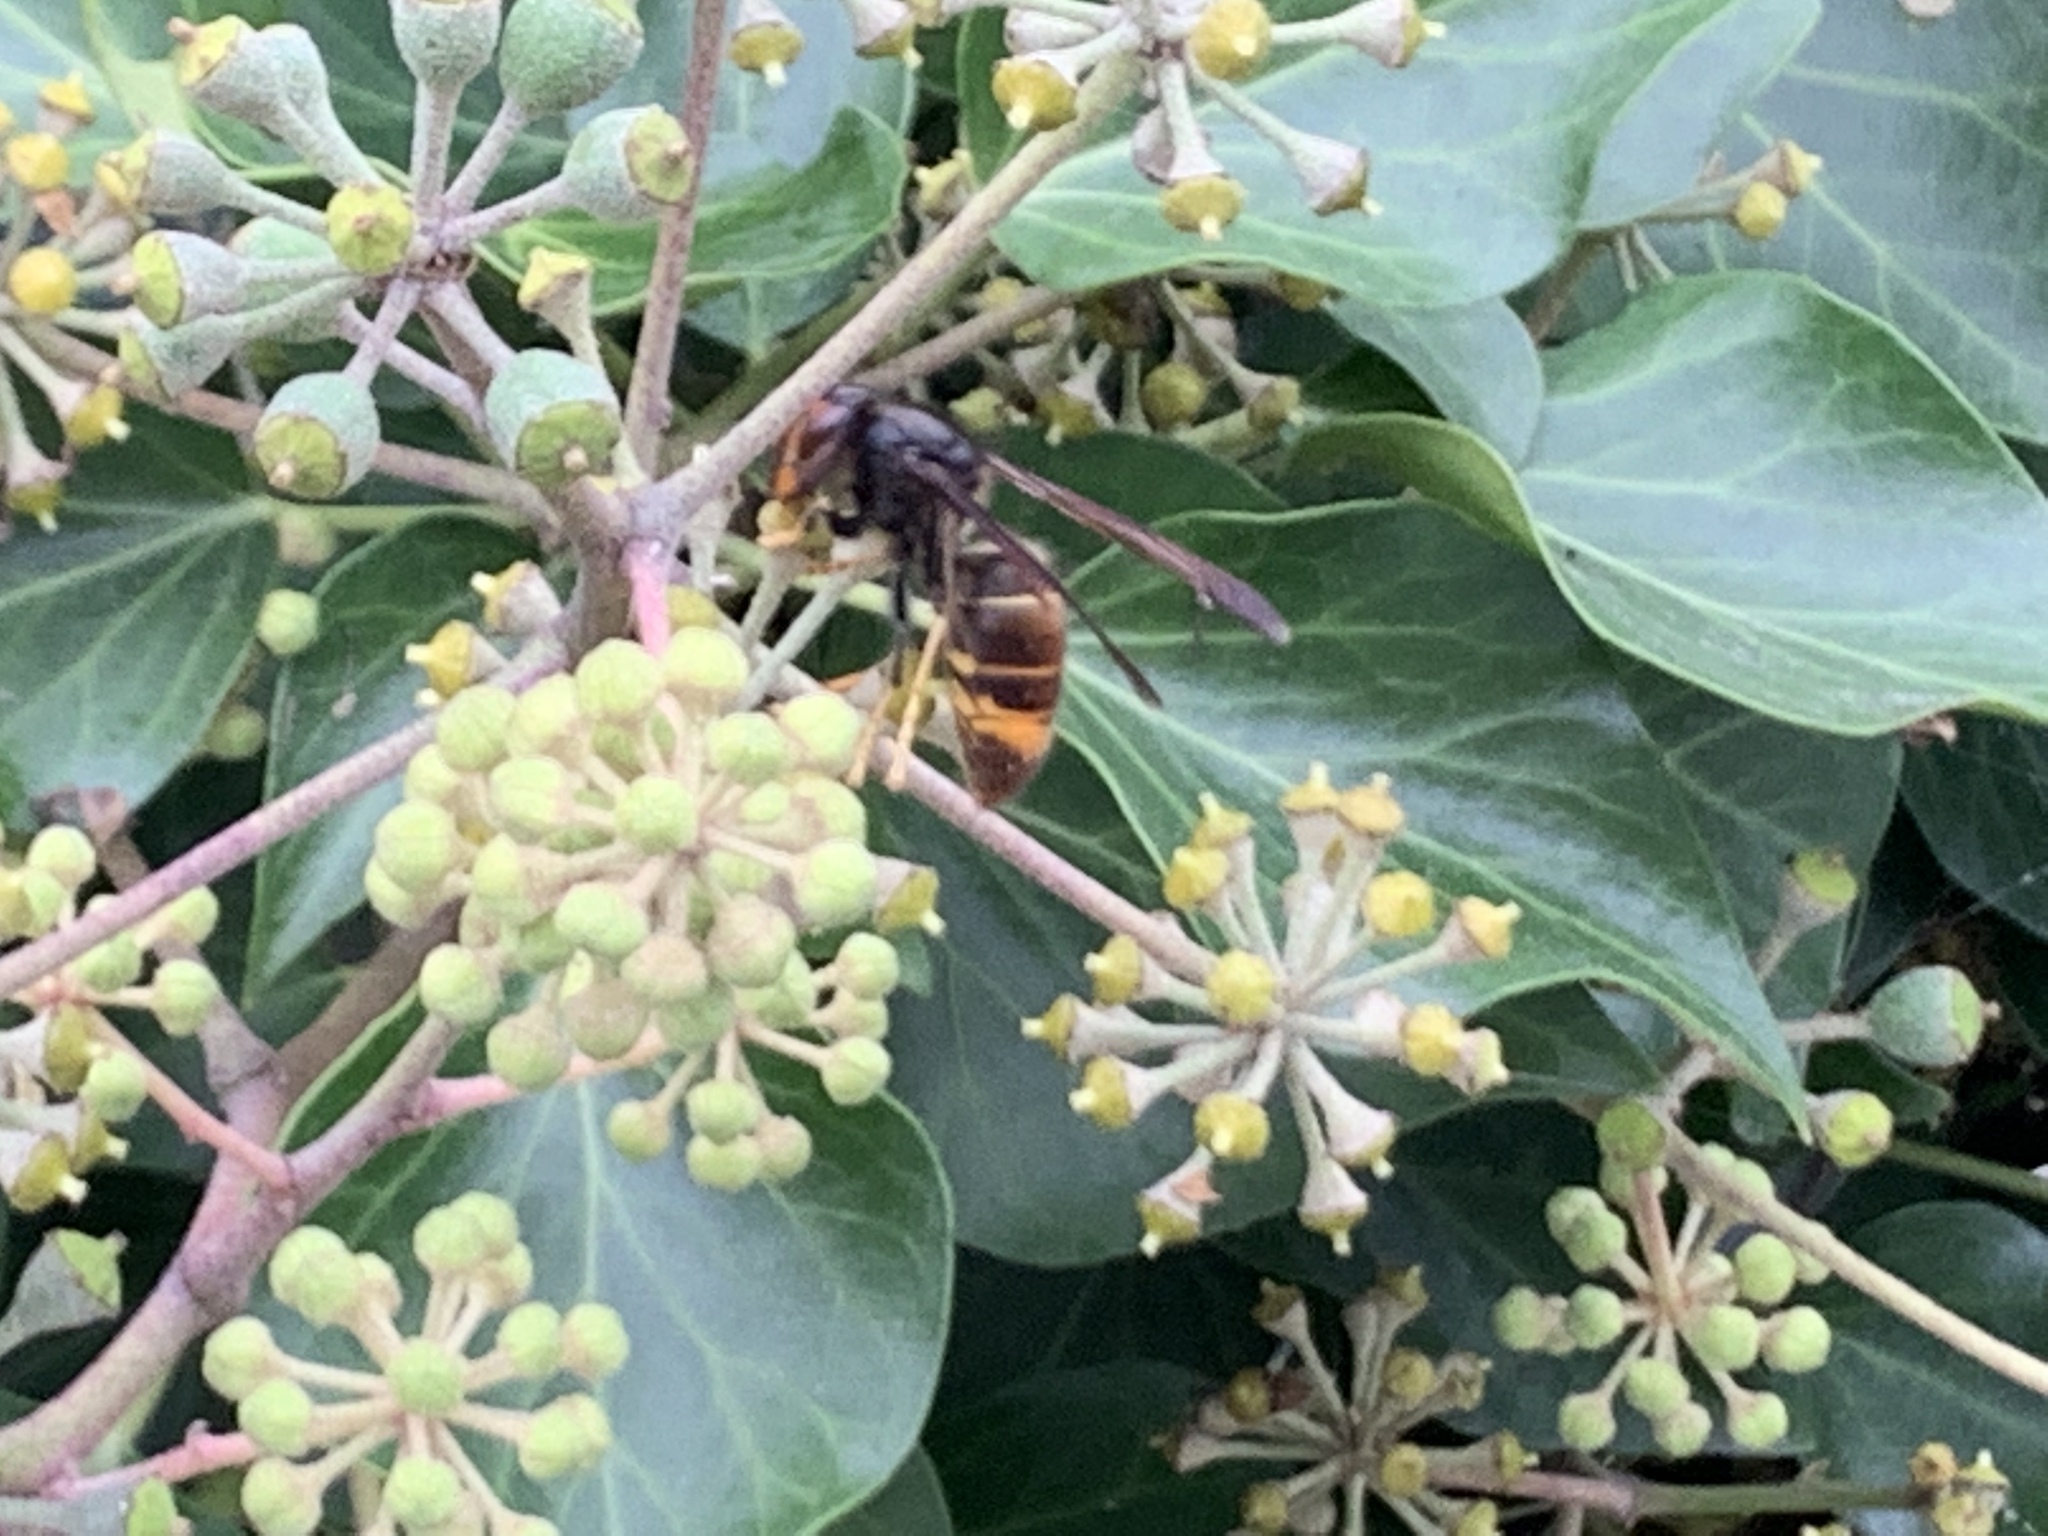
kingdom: Animalia
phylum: Arthropoda
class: Insecta
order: Hymenoptera
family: Vespidae
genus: Vespa
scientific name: Vespa velutina
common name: Asian hornet
